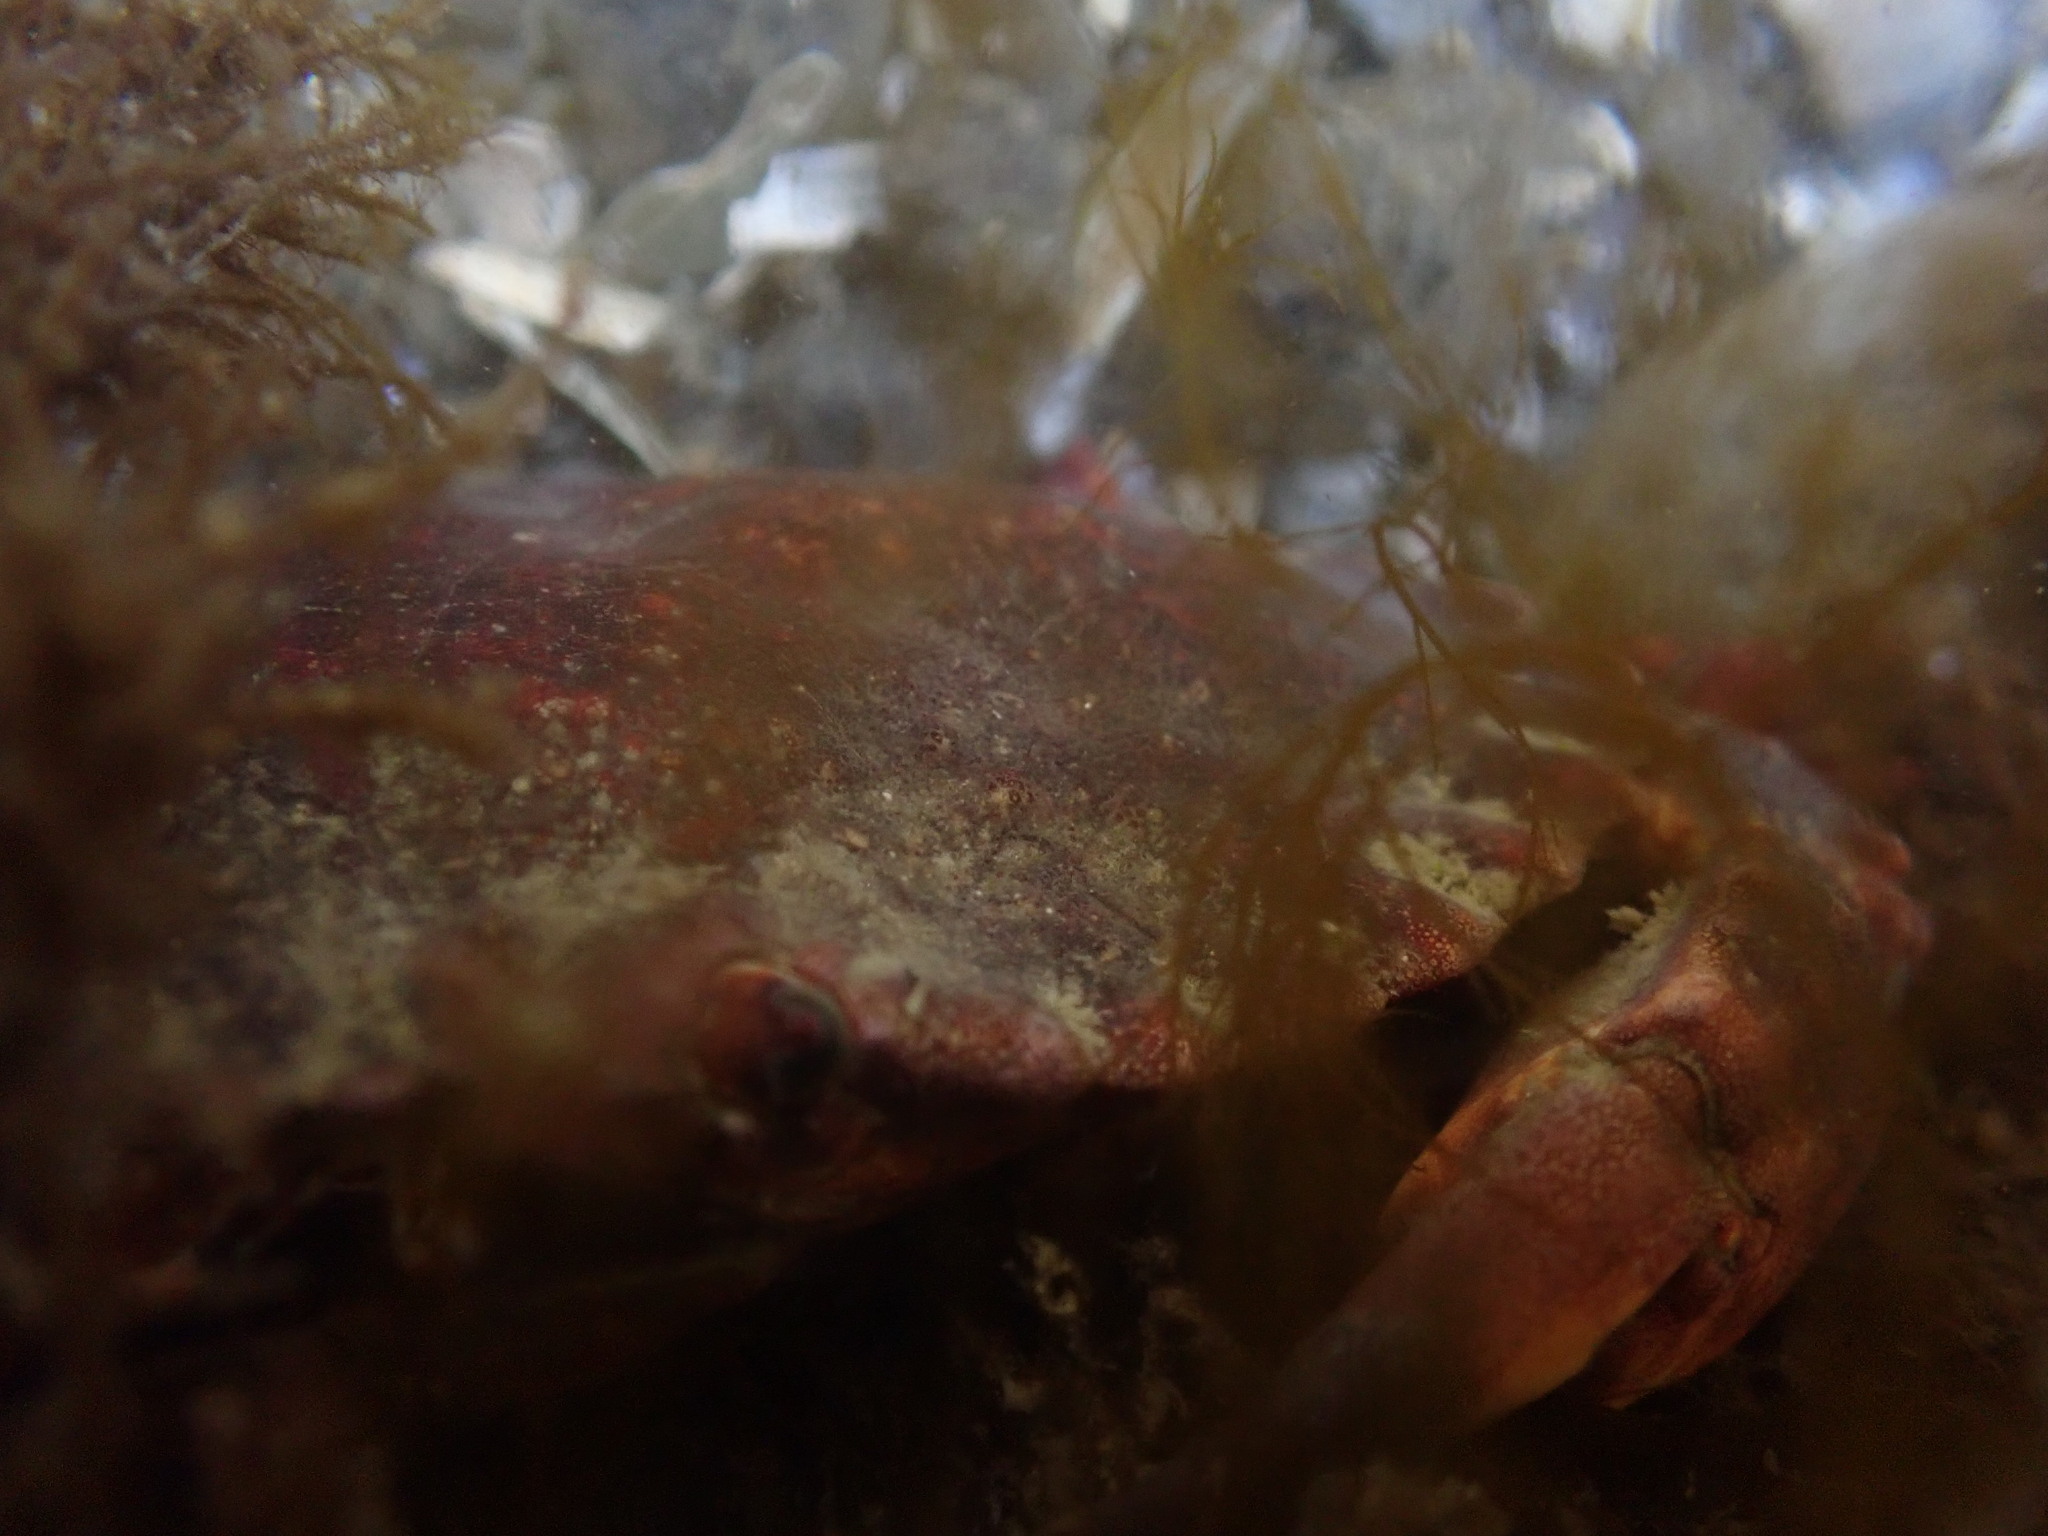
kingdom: Animalia
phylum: Arthropoda
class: Malacostraca
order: Decapoda
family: Cancridae
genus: Cancer
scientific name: Cancer productus
